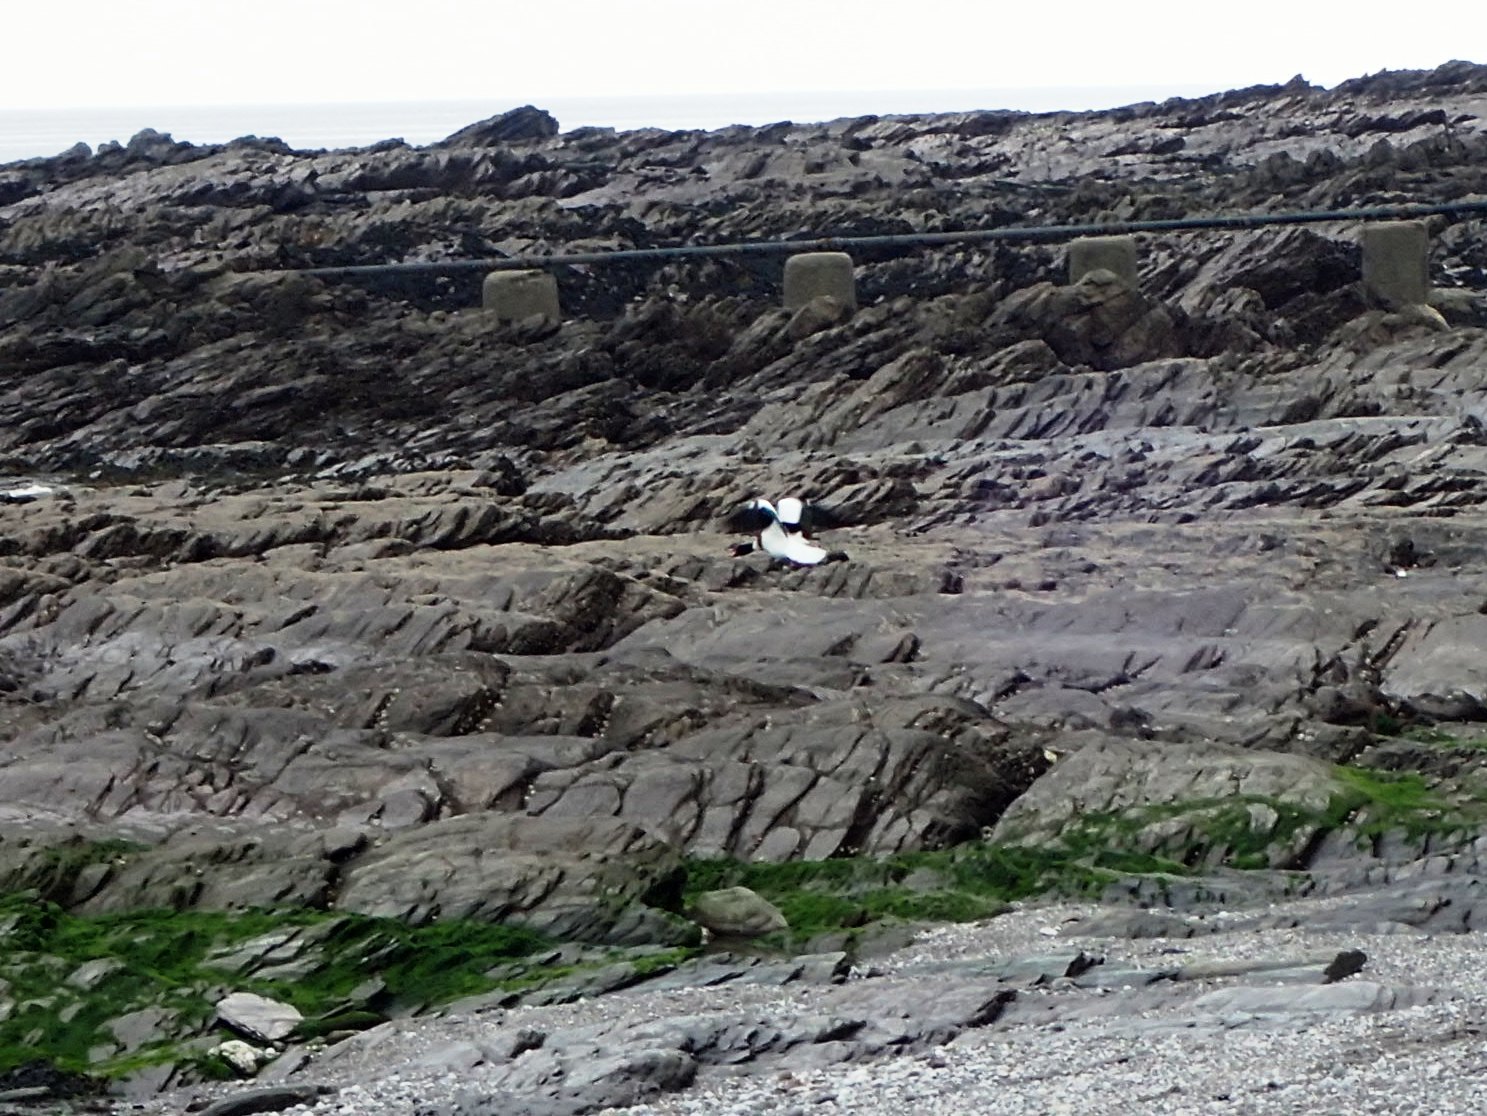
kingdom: Animalia
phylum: Chordata
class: Aves
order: Anseriformes
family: Anatidae
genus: Tadorna
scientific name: Tadorna tadorna
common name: Common shelduck
